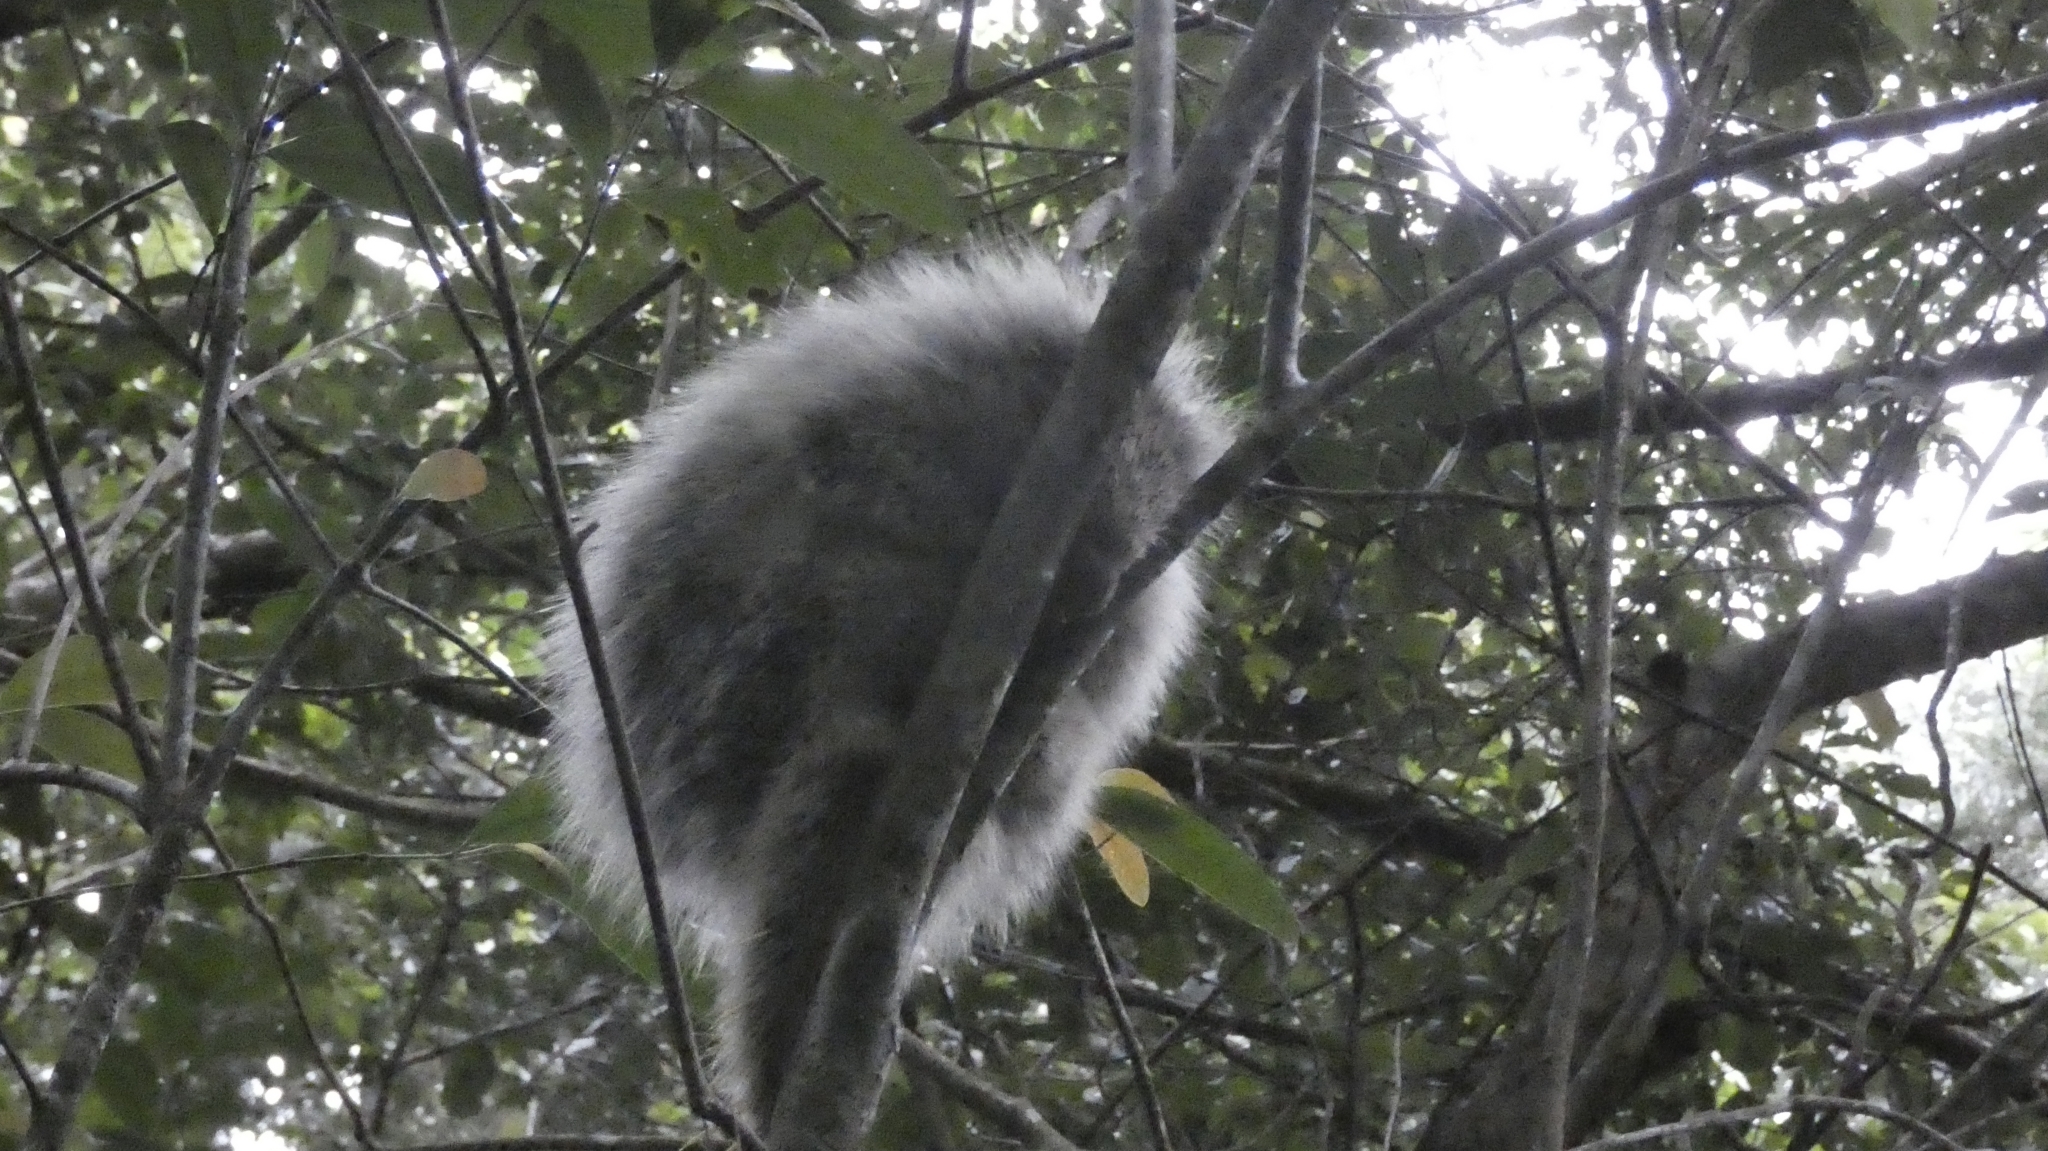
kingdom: Animalia
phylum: Chordata
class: Mammalia
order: Rodentia
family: Erethizontidae
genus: Sphiggurus
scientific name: Sphiggurus spinosus
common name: Paraguaian hairy dwarf porcupine
